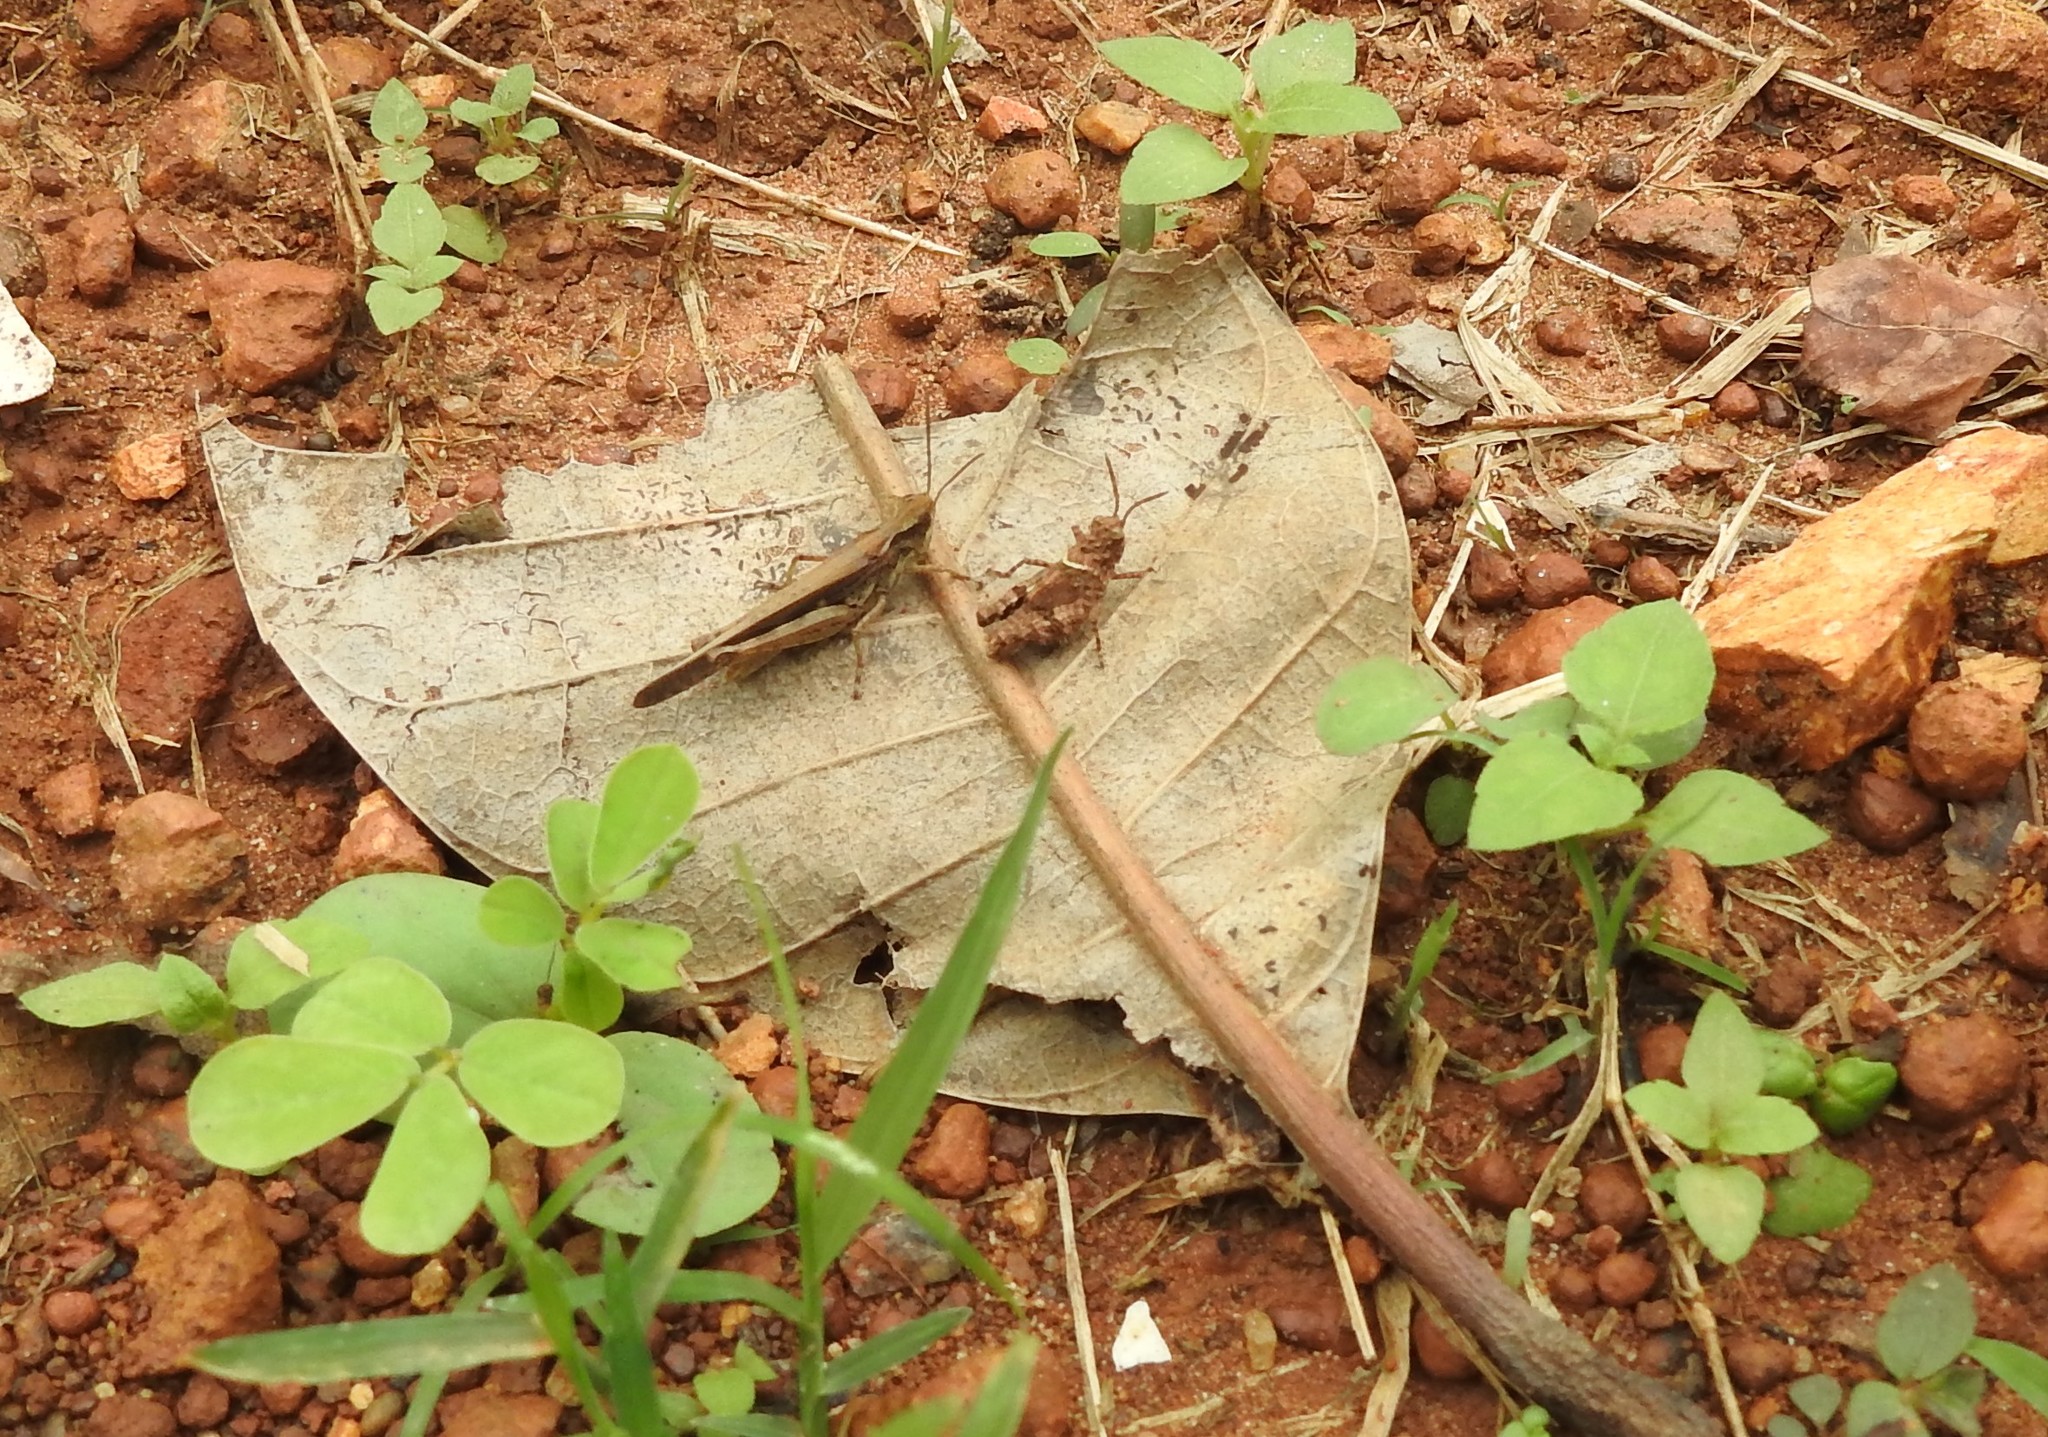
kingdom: Animalia
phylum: Arthropoda
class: Insecta
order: Orthoptera
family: Acrididae
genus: Trilophidia
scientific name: Trilophidia annulata
